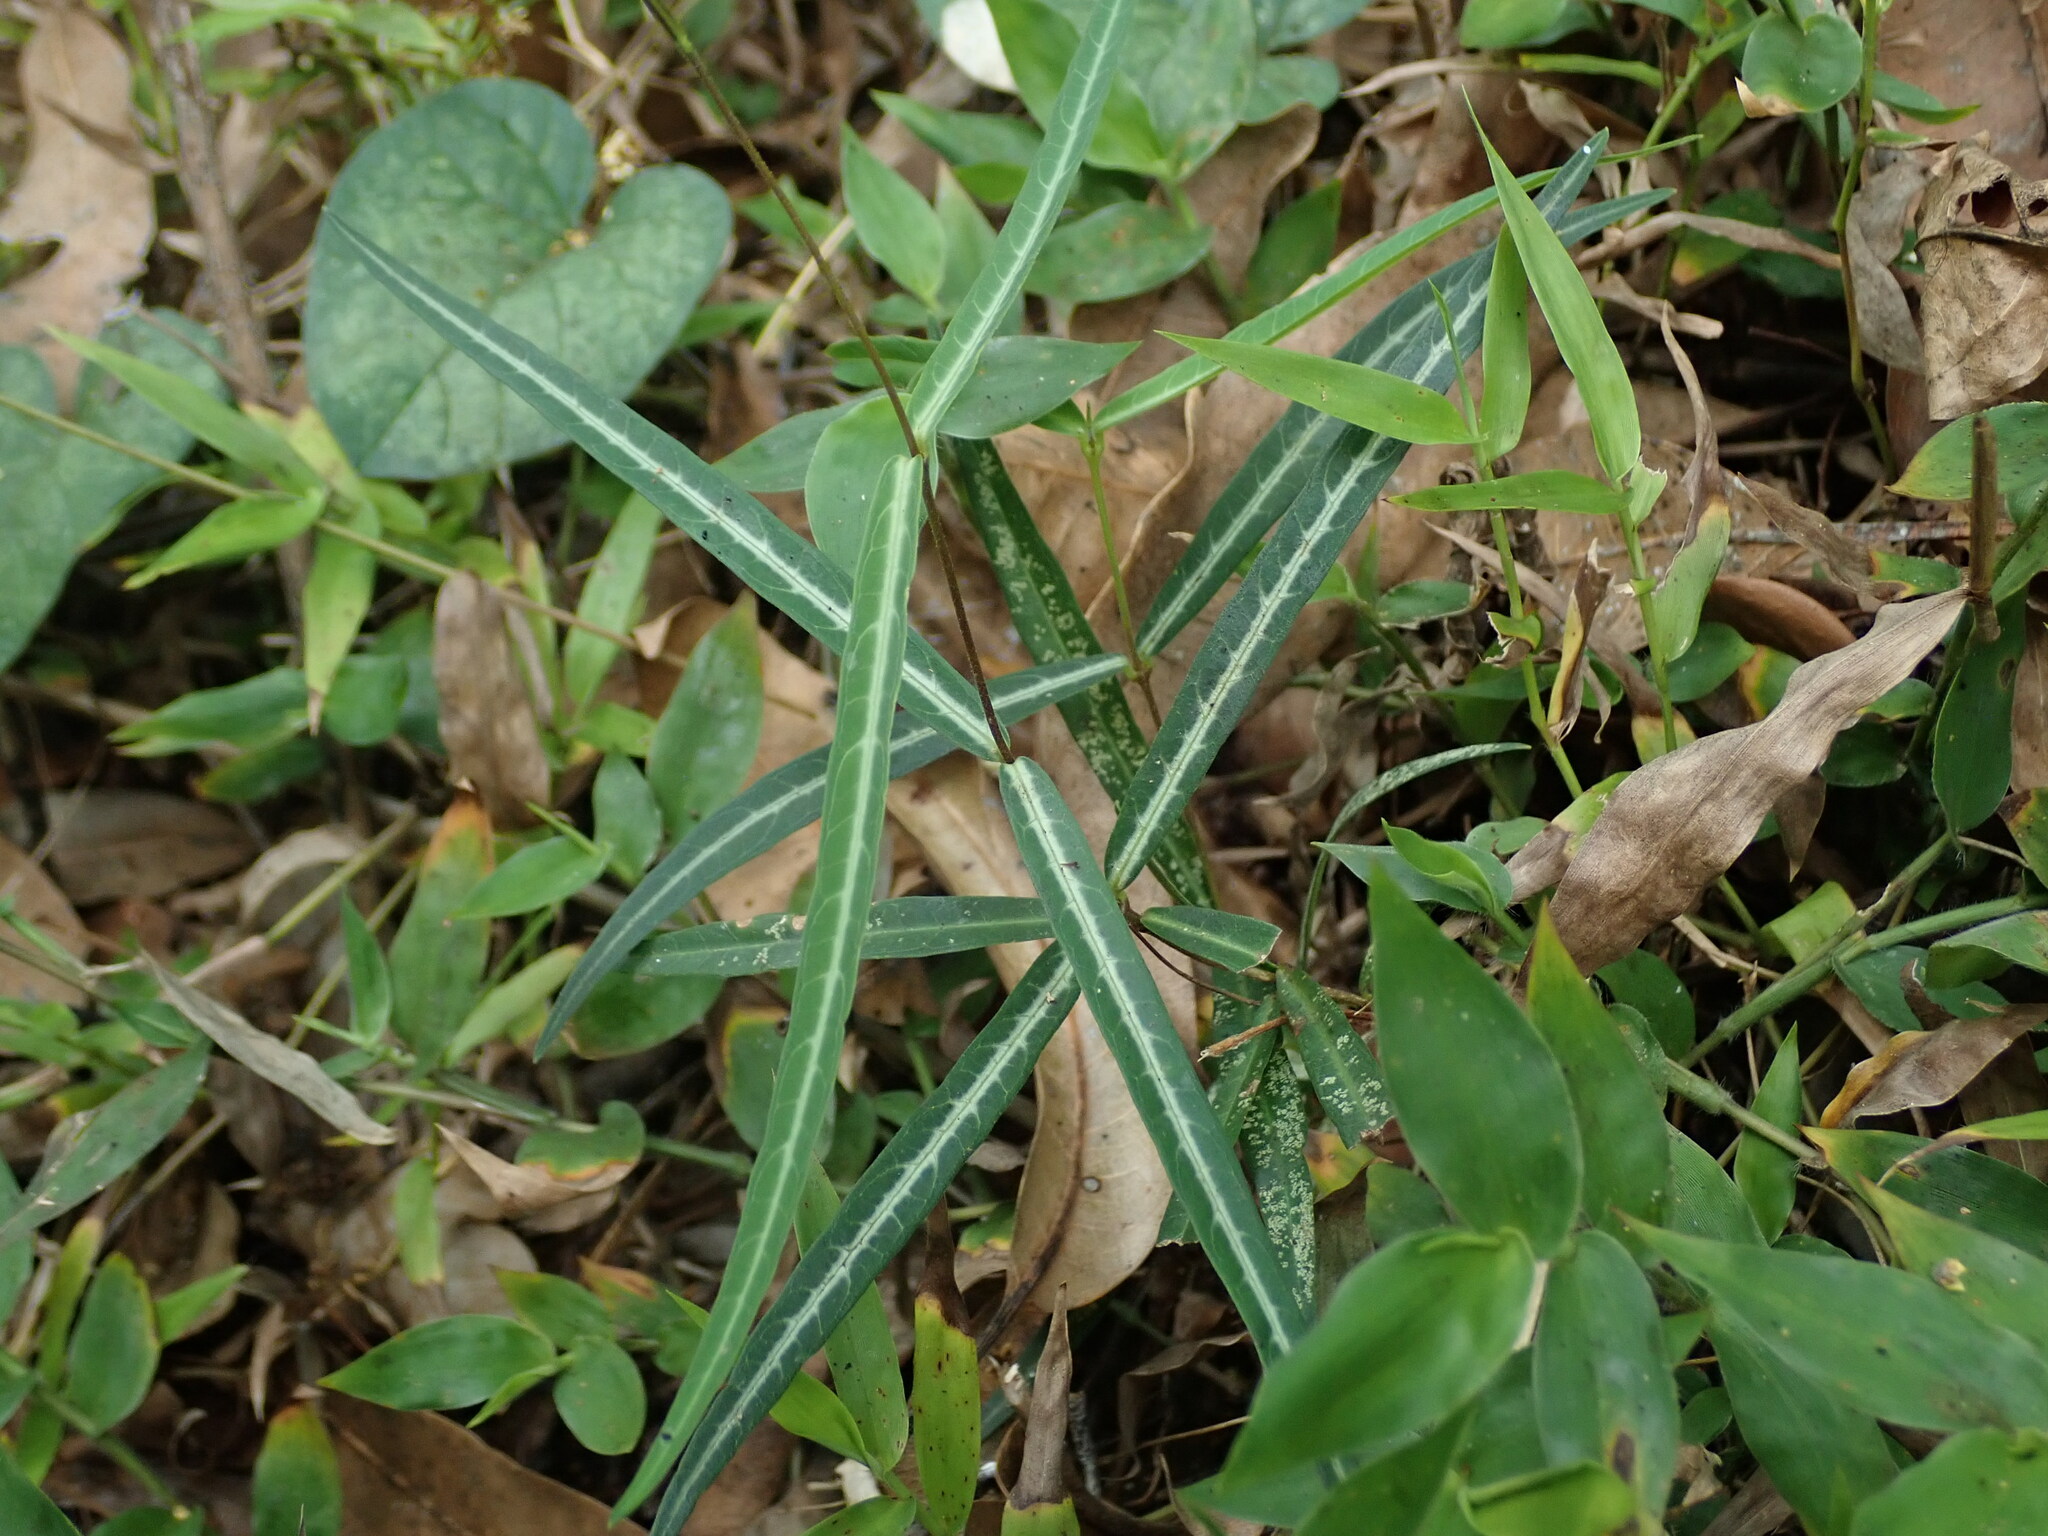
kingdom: Plantae
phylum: Tracheophyta
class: Magnoliopsida
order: Gentianales
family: Apocynaceae
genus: Hemidesmus
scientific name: Hemidesmus indicus
